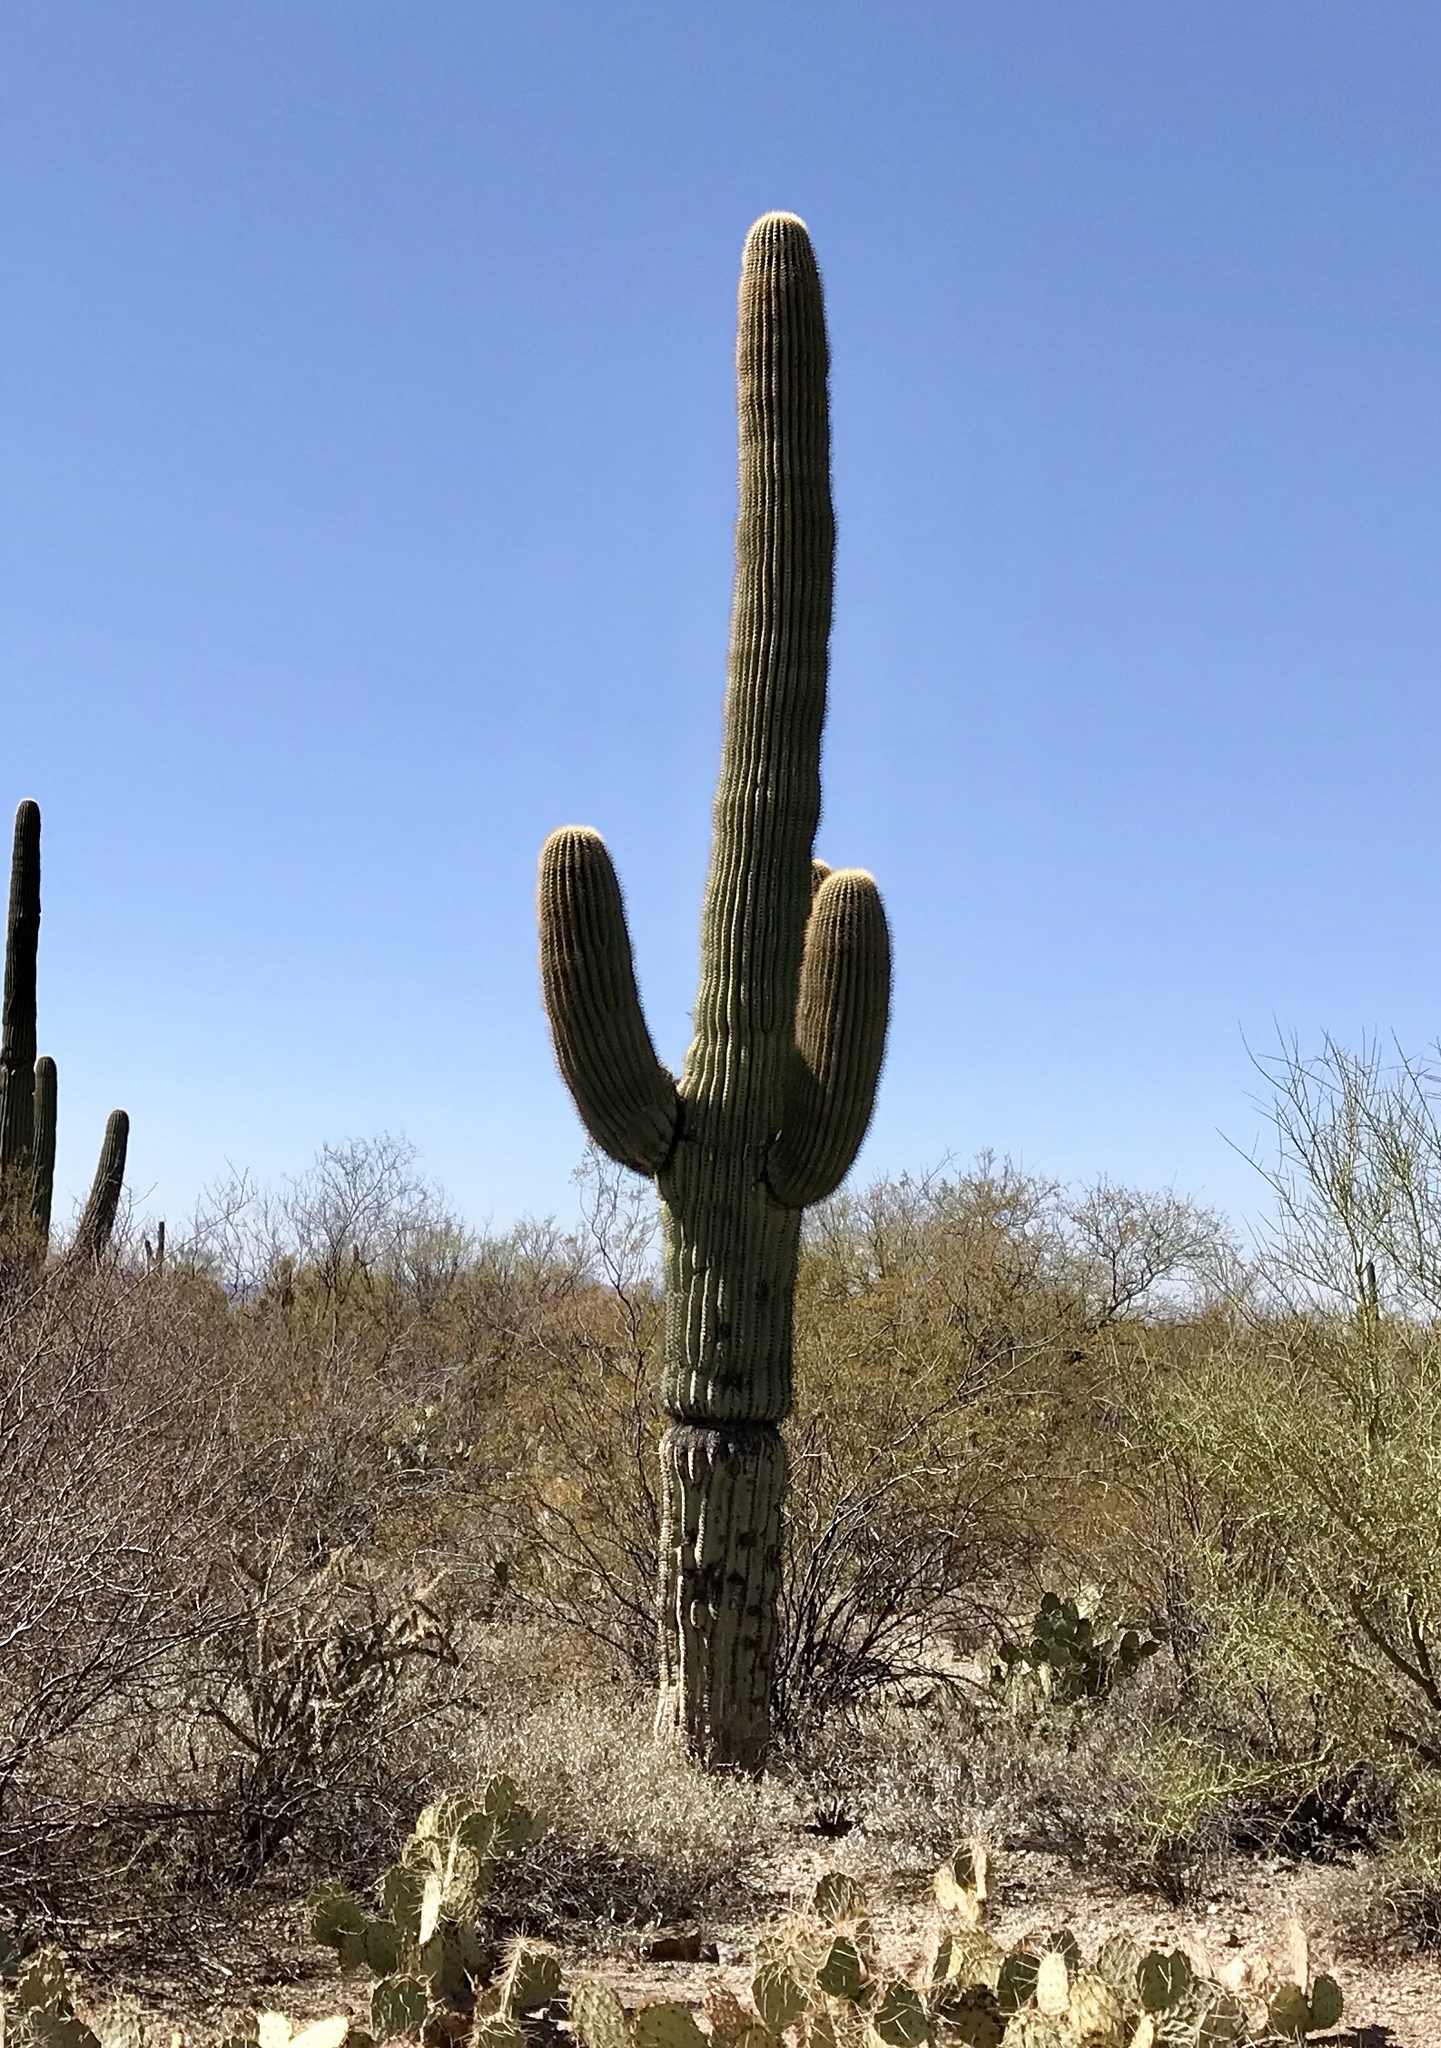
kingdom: Plantae
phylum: Tracheophyta
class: Magnoliopsida
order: Caryophyllales
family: Cactaceae
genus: Carnegiea
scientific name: Carnegiea gigantea
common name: Saguaro
